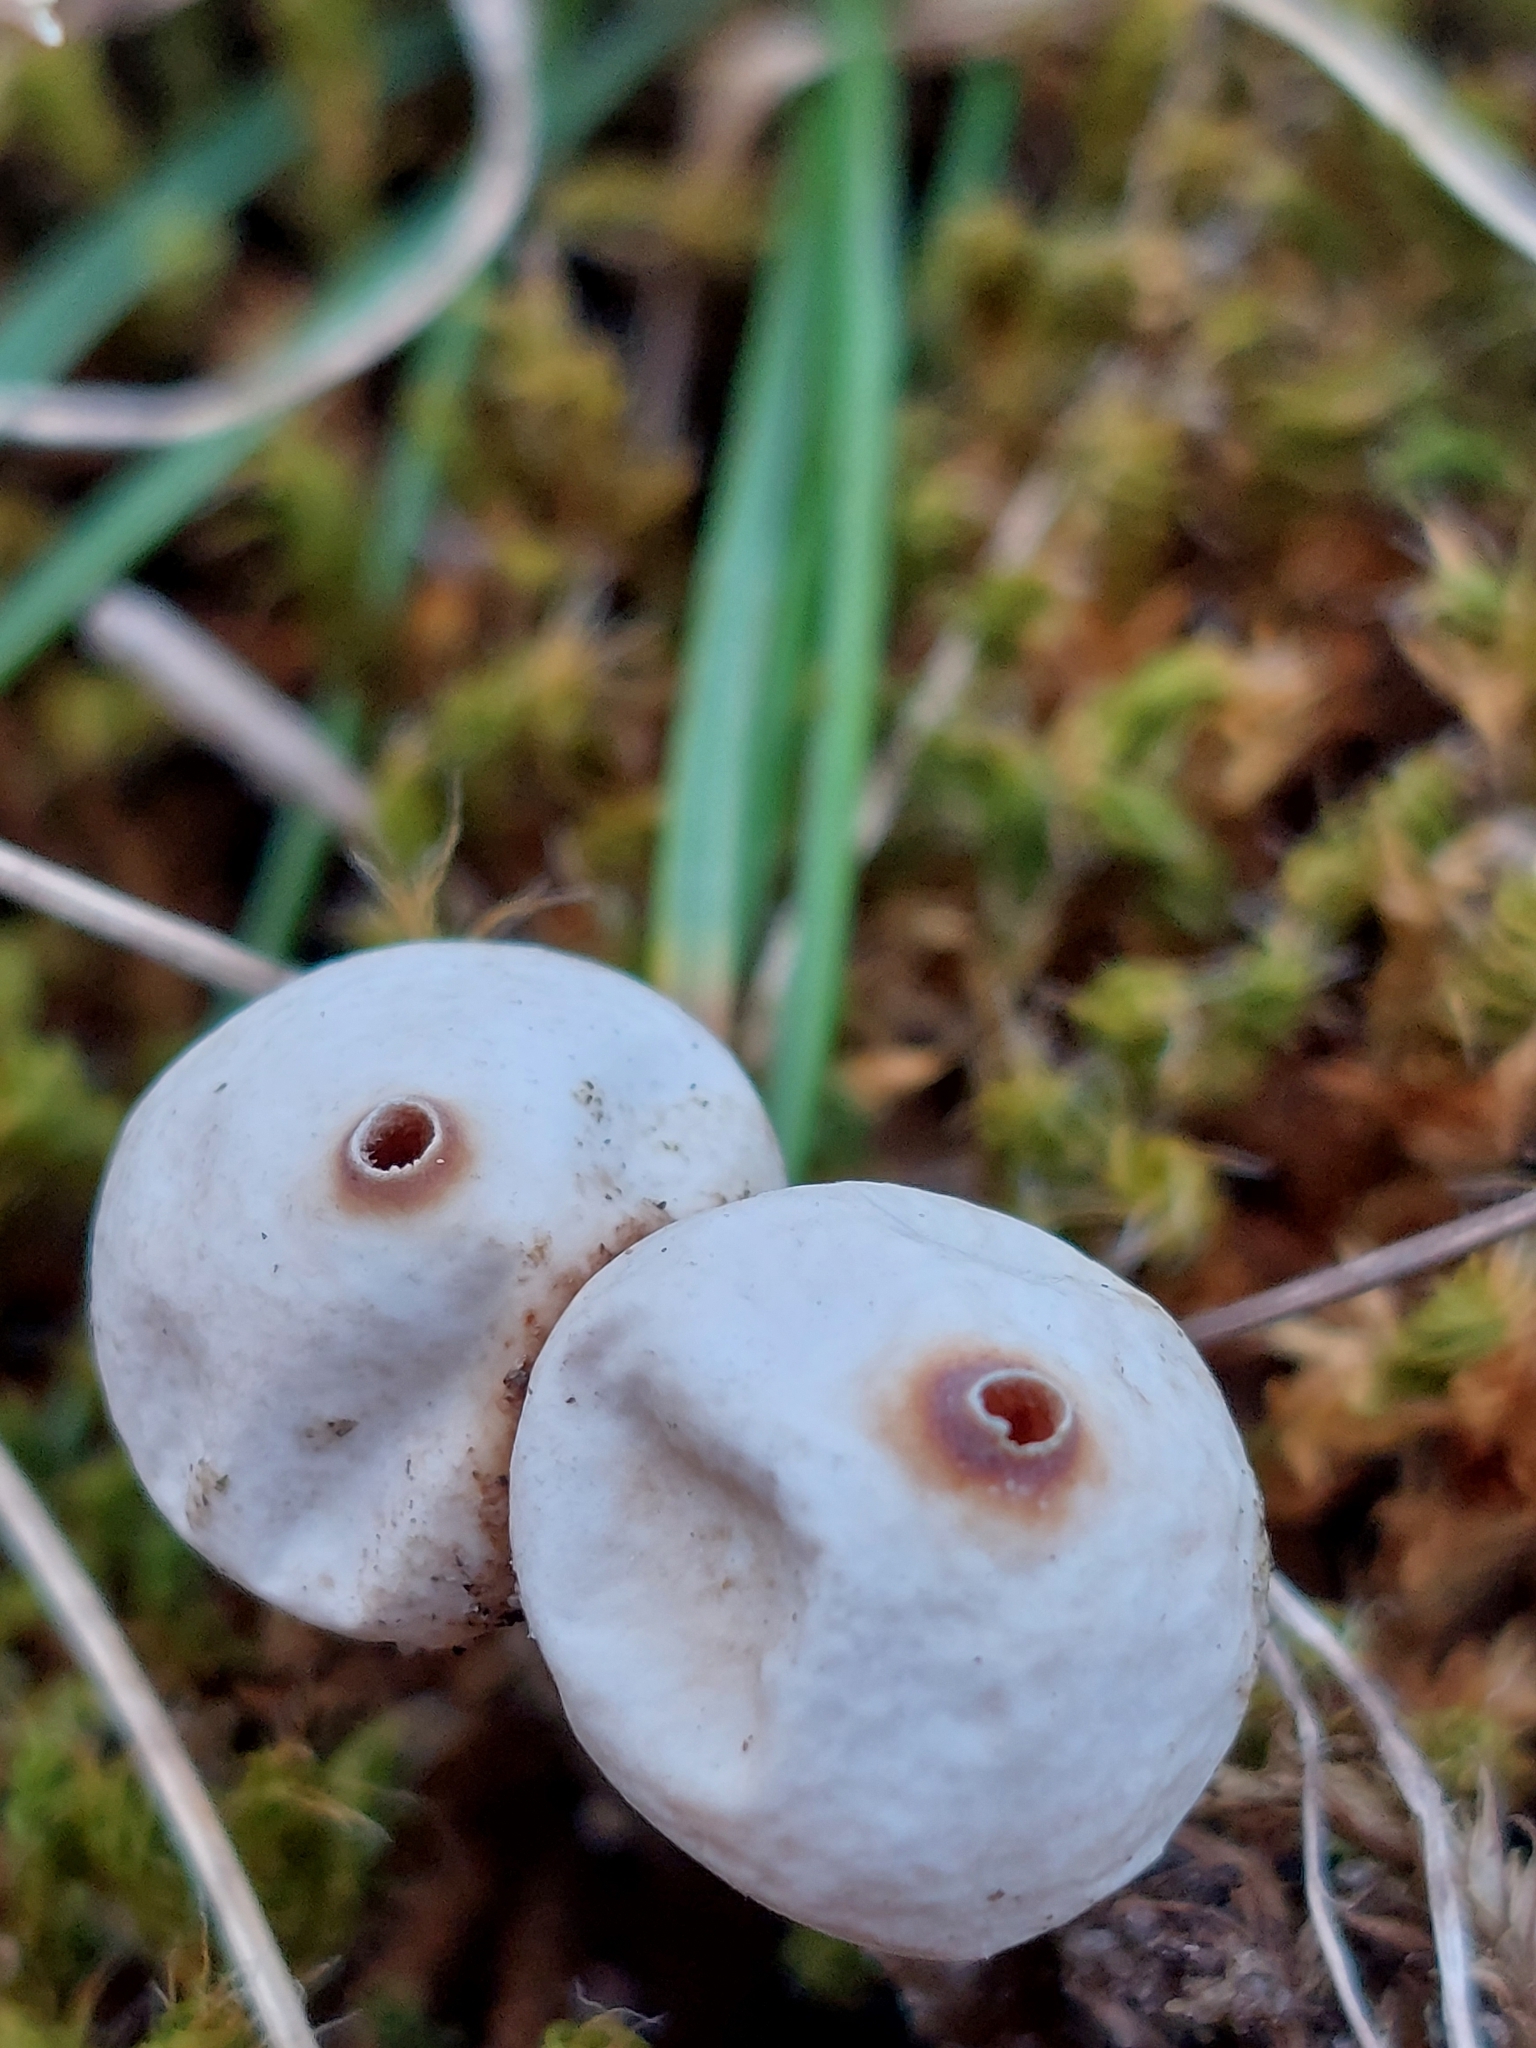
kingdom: Fungi
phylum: Basidiomycota
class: Agaricomycetes
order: Agaricales
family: Agaricaceae
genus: Tulostoma
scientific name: Tulostoma brumale
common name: Winter stalk puffball
